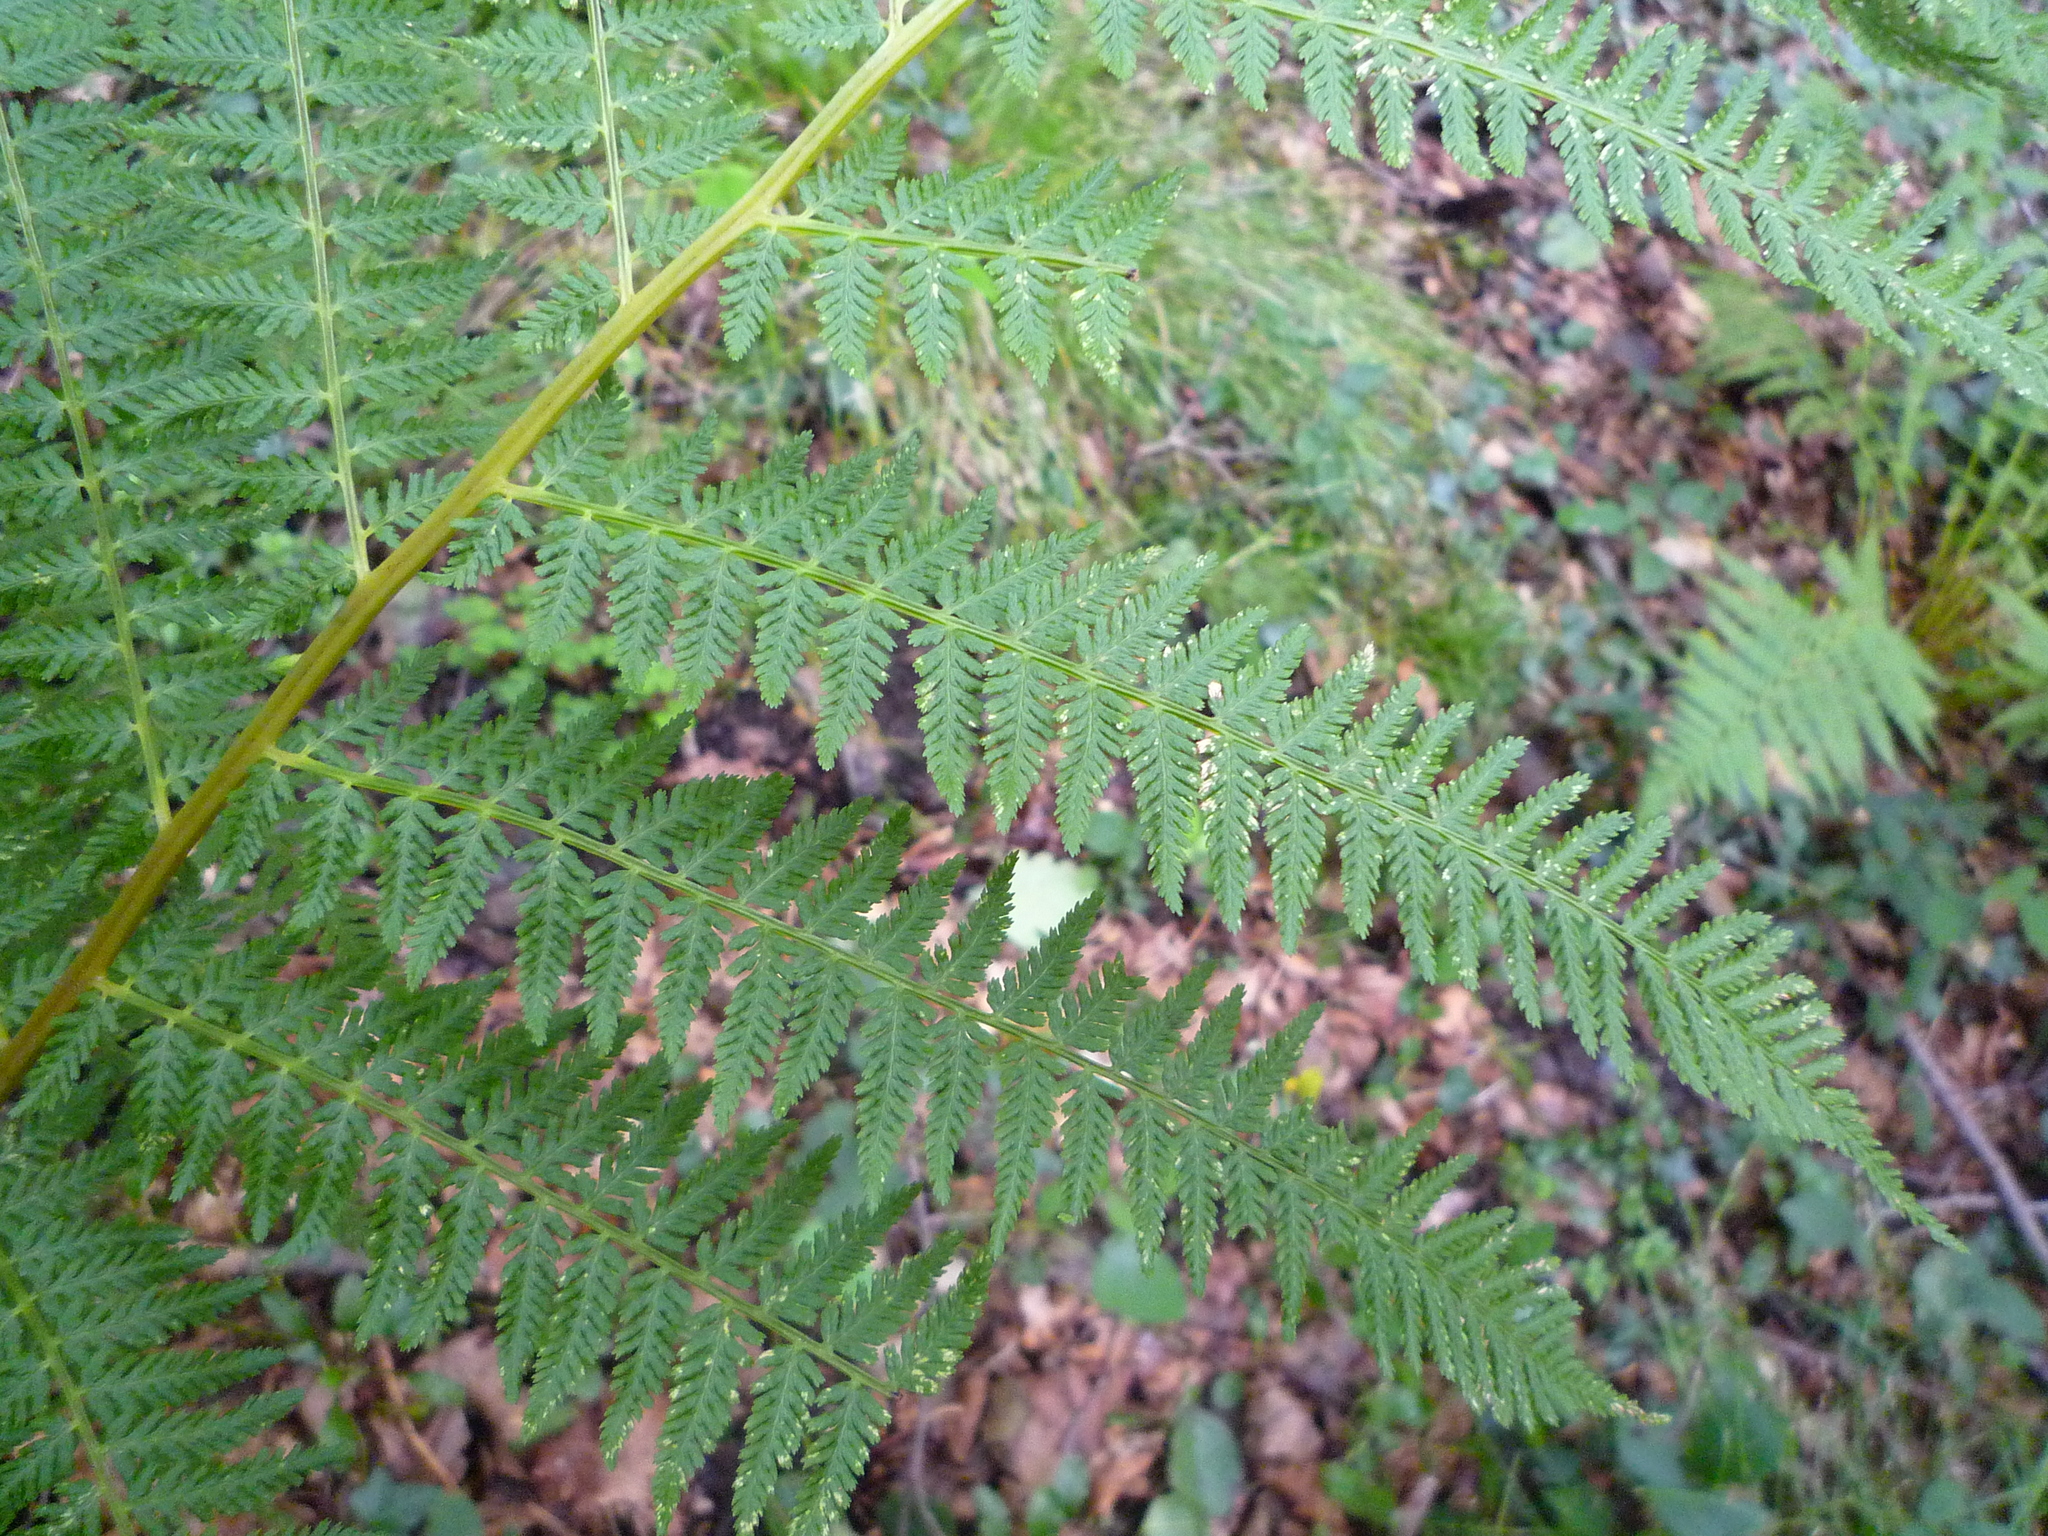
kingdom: Plantae
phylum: Tracheophyta
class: Polypodiopsida
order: Polypodiales
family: Athyriaceae
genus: Athyrium
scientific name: Athyrium filix-femina
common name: Lady fern
